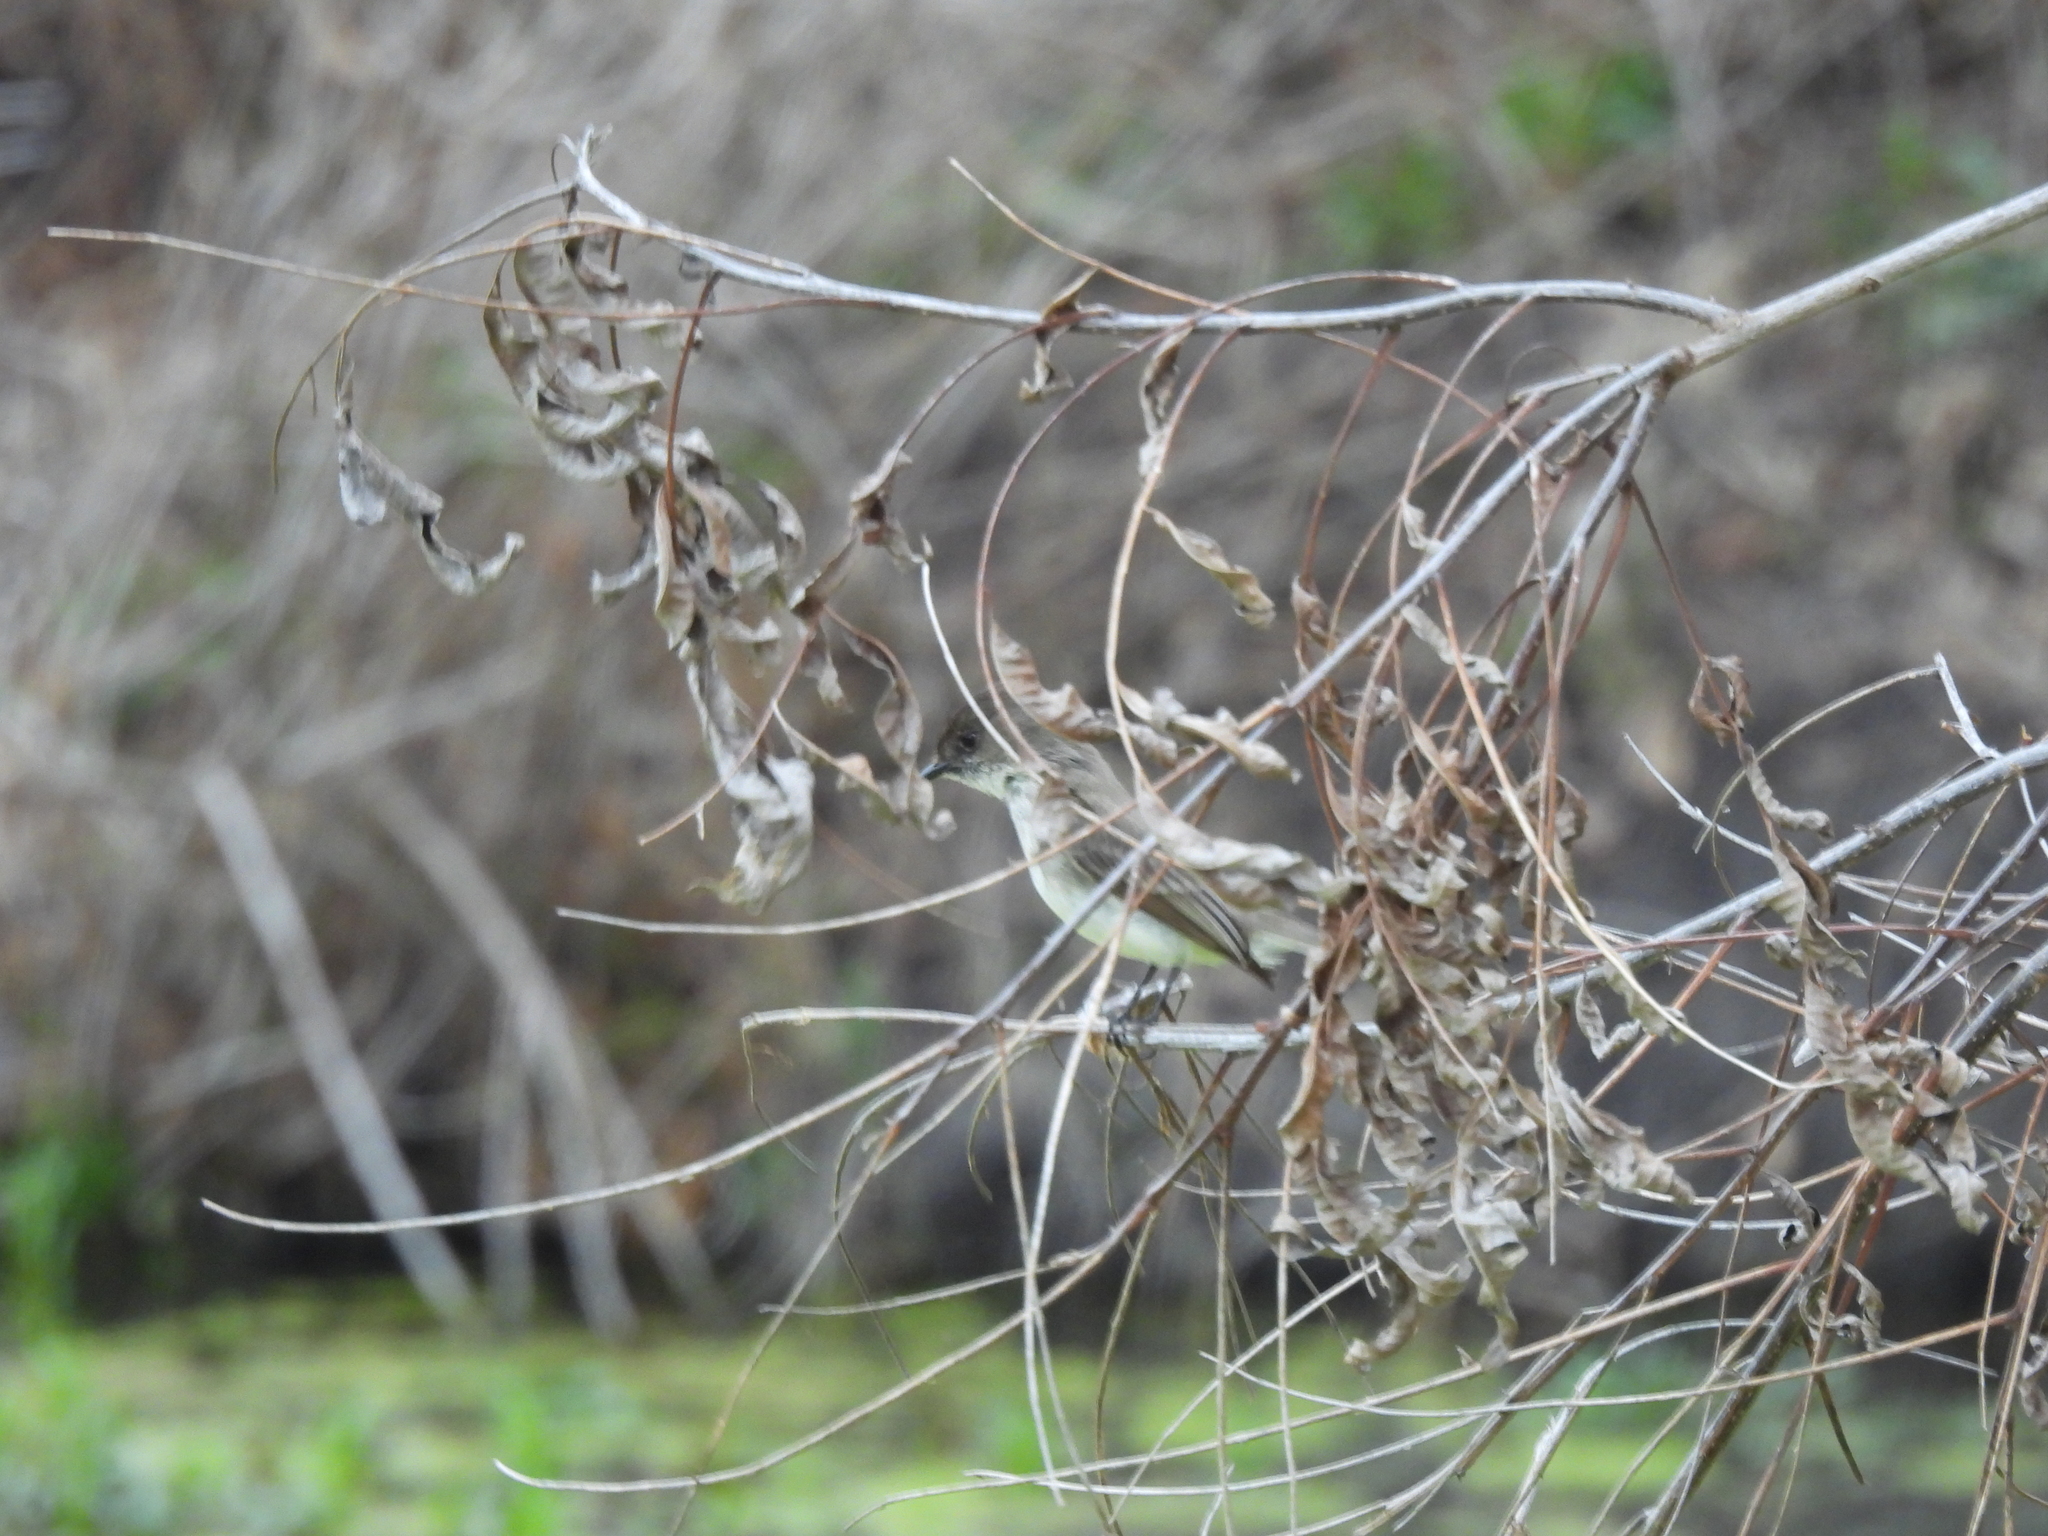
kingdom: Animalia
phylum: Chordata
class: Aves
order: Passeriformes
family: Tyrannidae
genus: Sayornis
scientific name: Sayornis phoebe
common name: Eastern phoebe
